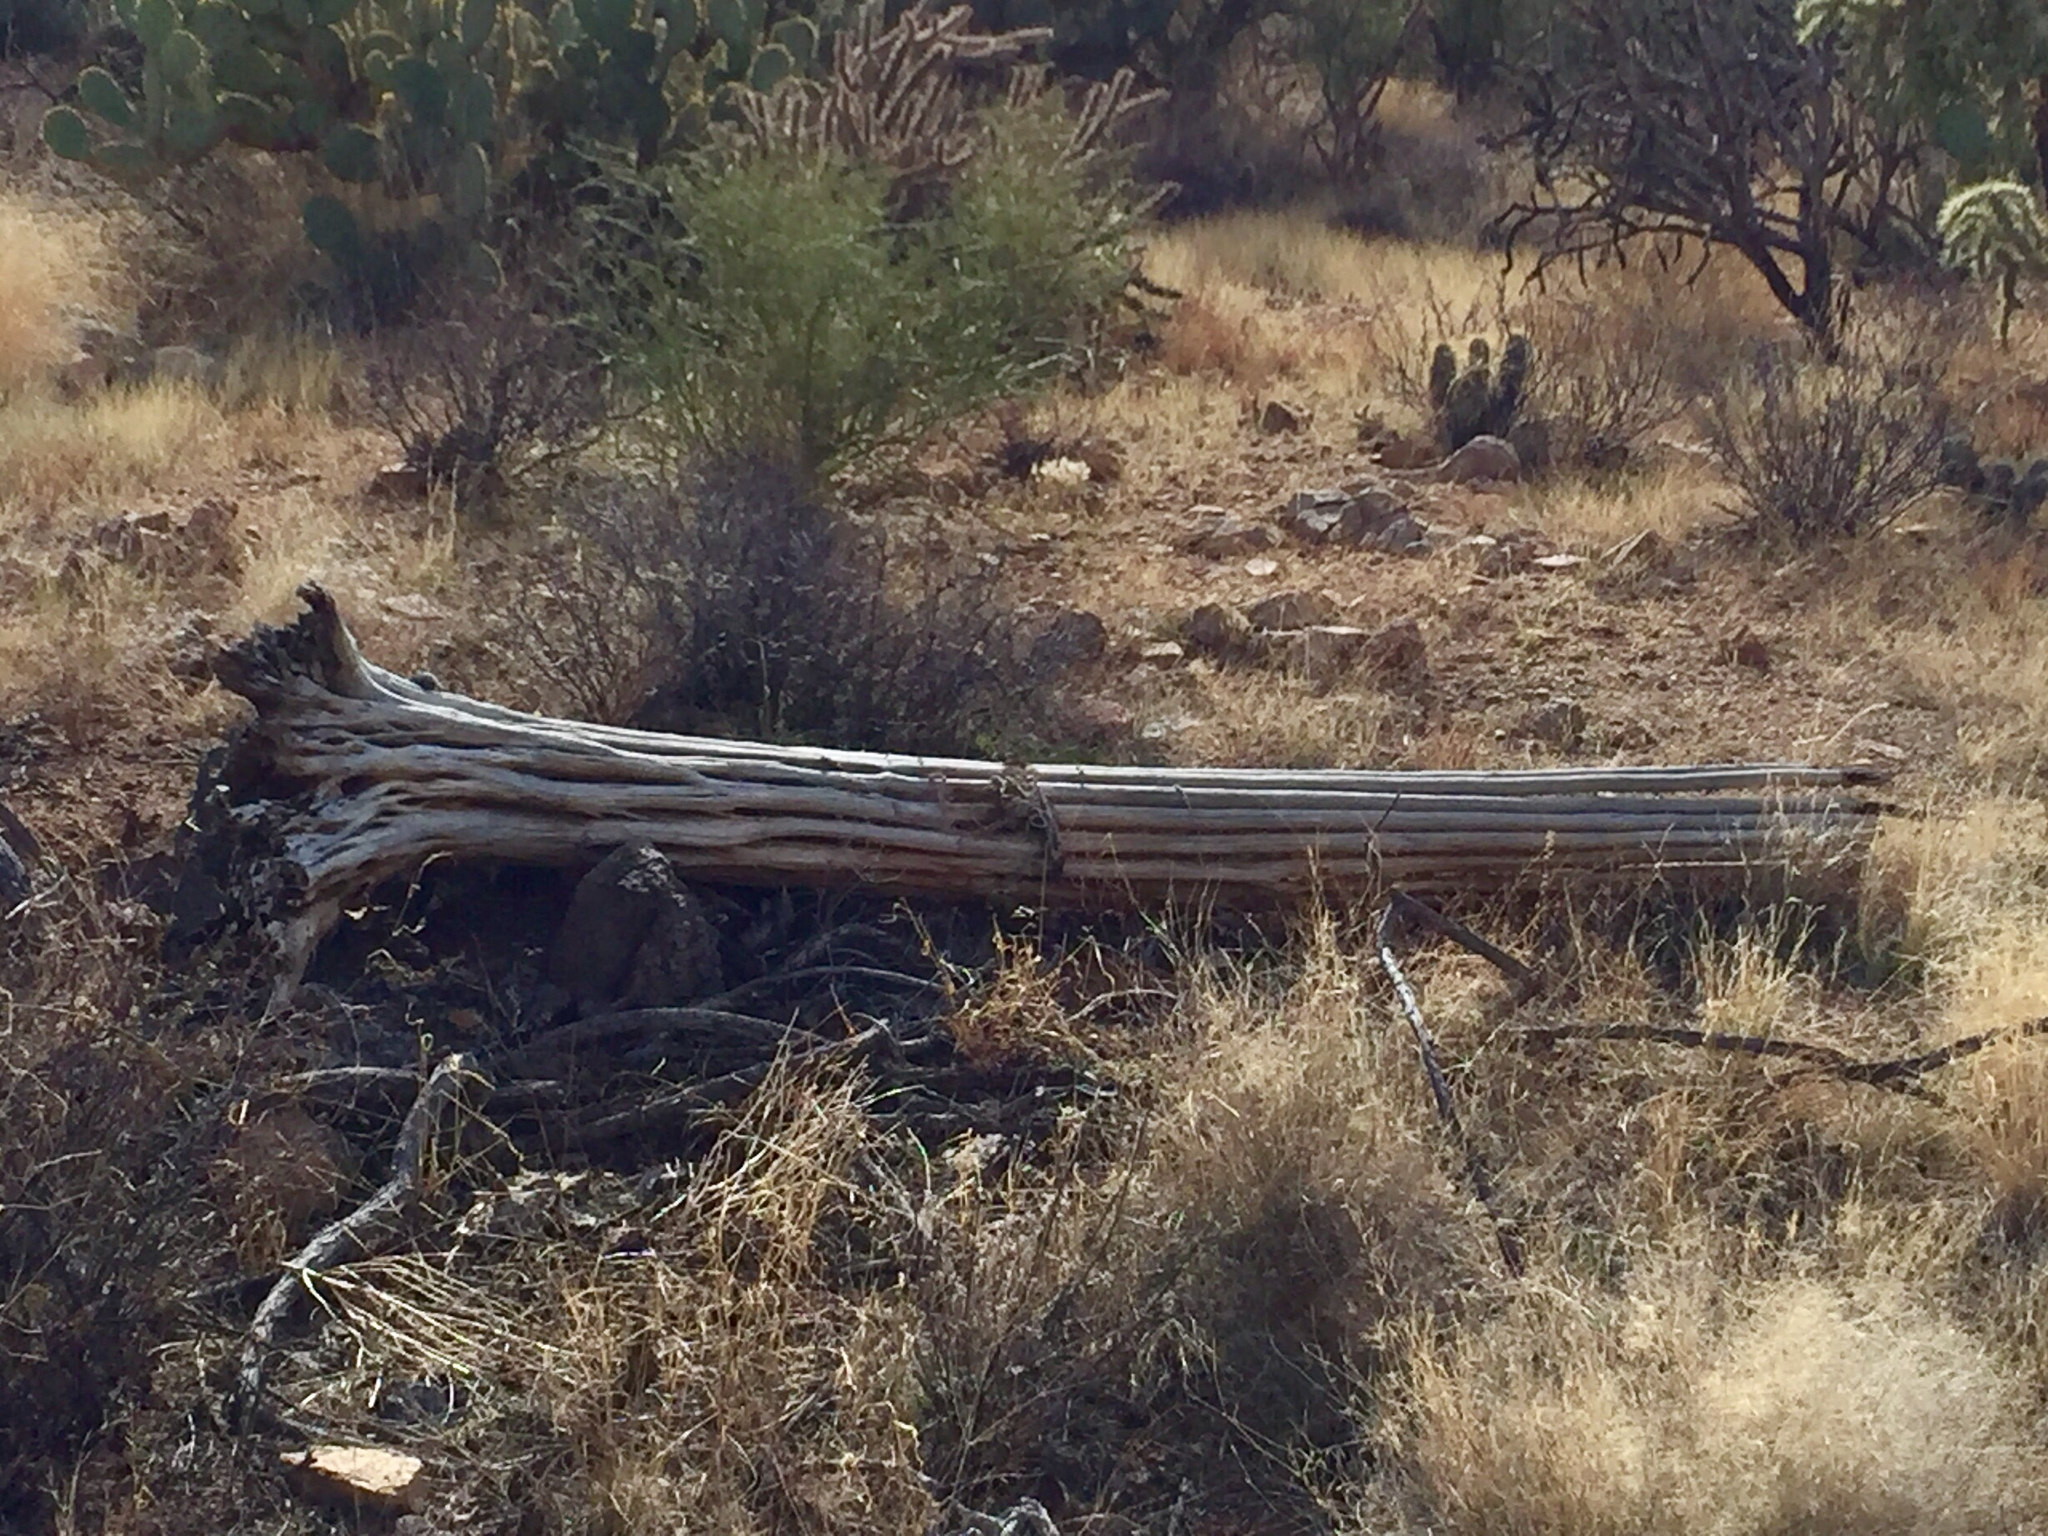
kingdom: Plantae
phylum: Tracheophyta
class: Magnoliopsida
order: Caryophyllales
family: Cactaceae
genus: Carnegiea
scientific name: Carnegiea gigantea
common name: Saguaro
